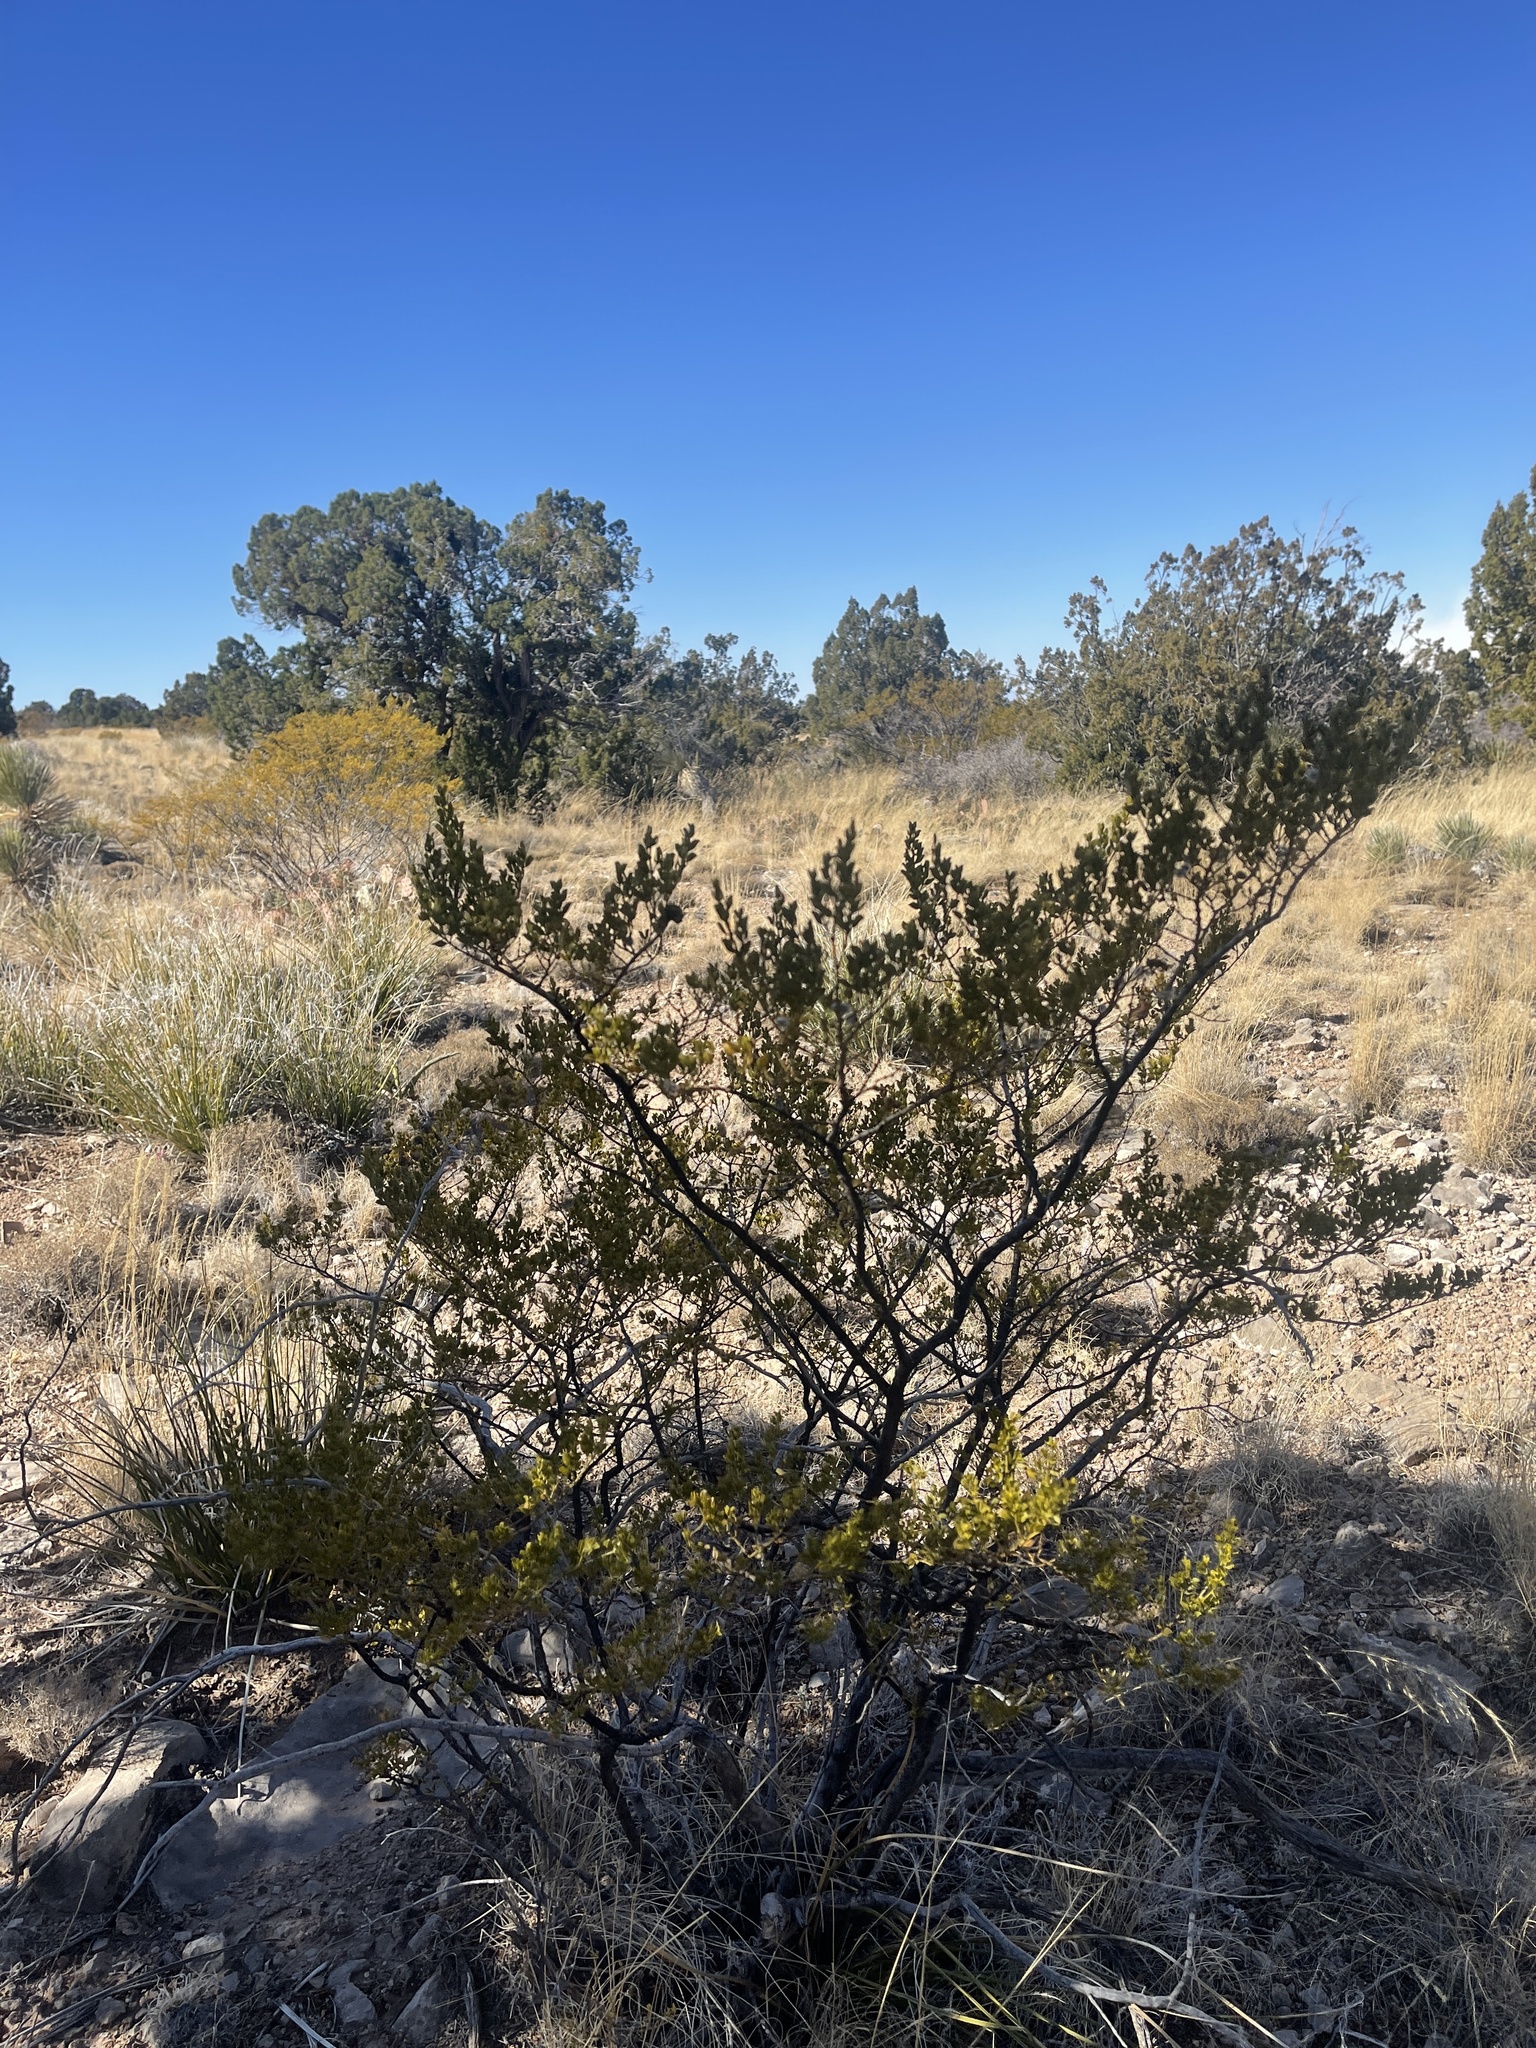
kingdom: Plantae
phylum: Tracheophyta
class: Magnoliopsida
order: Zygophyllales
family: Zygophyllaceae
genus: Larrea
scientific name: Larrea tridentata
